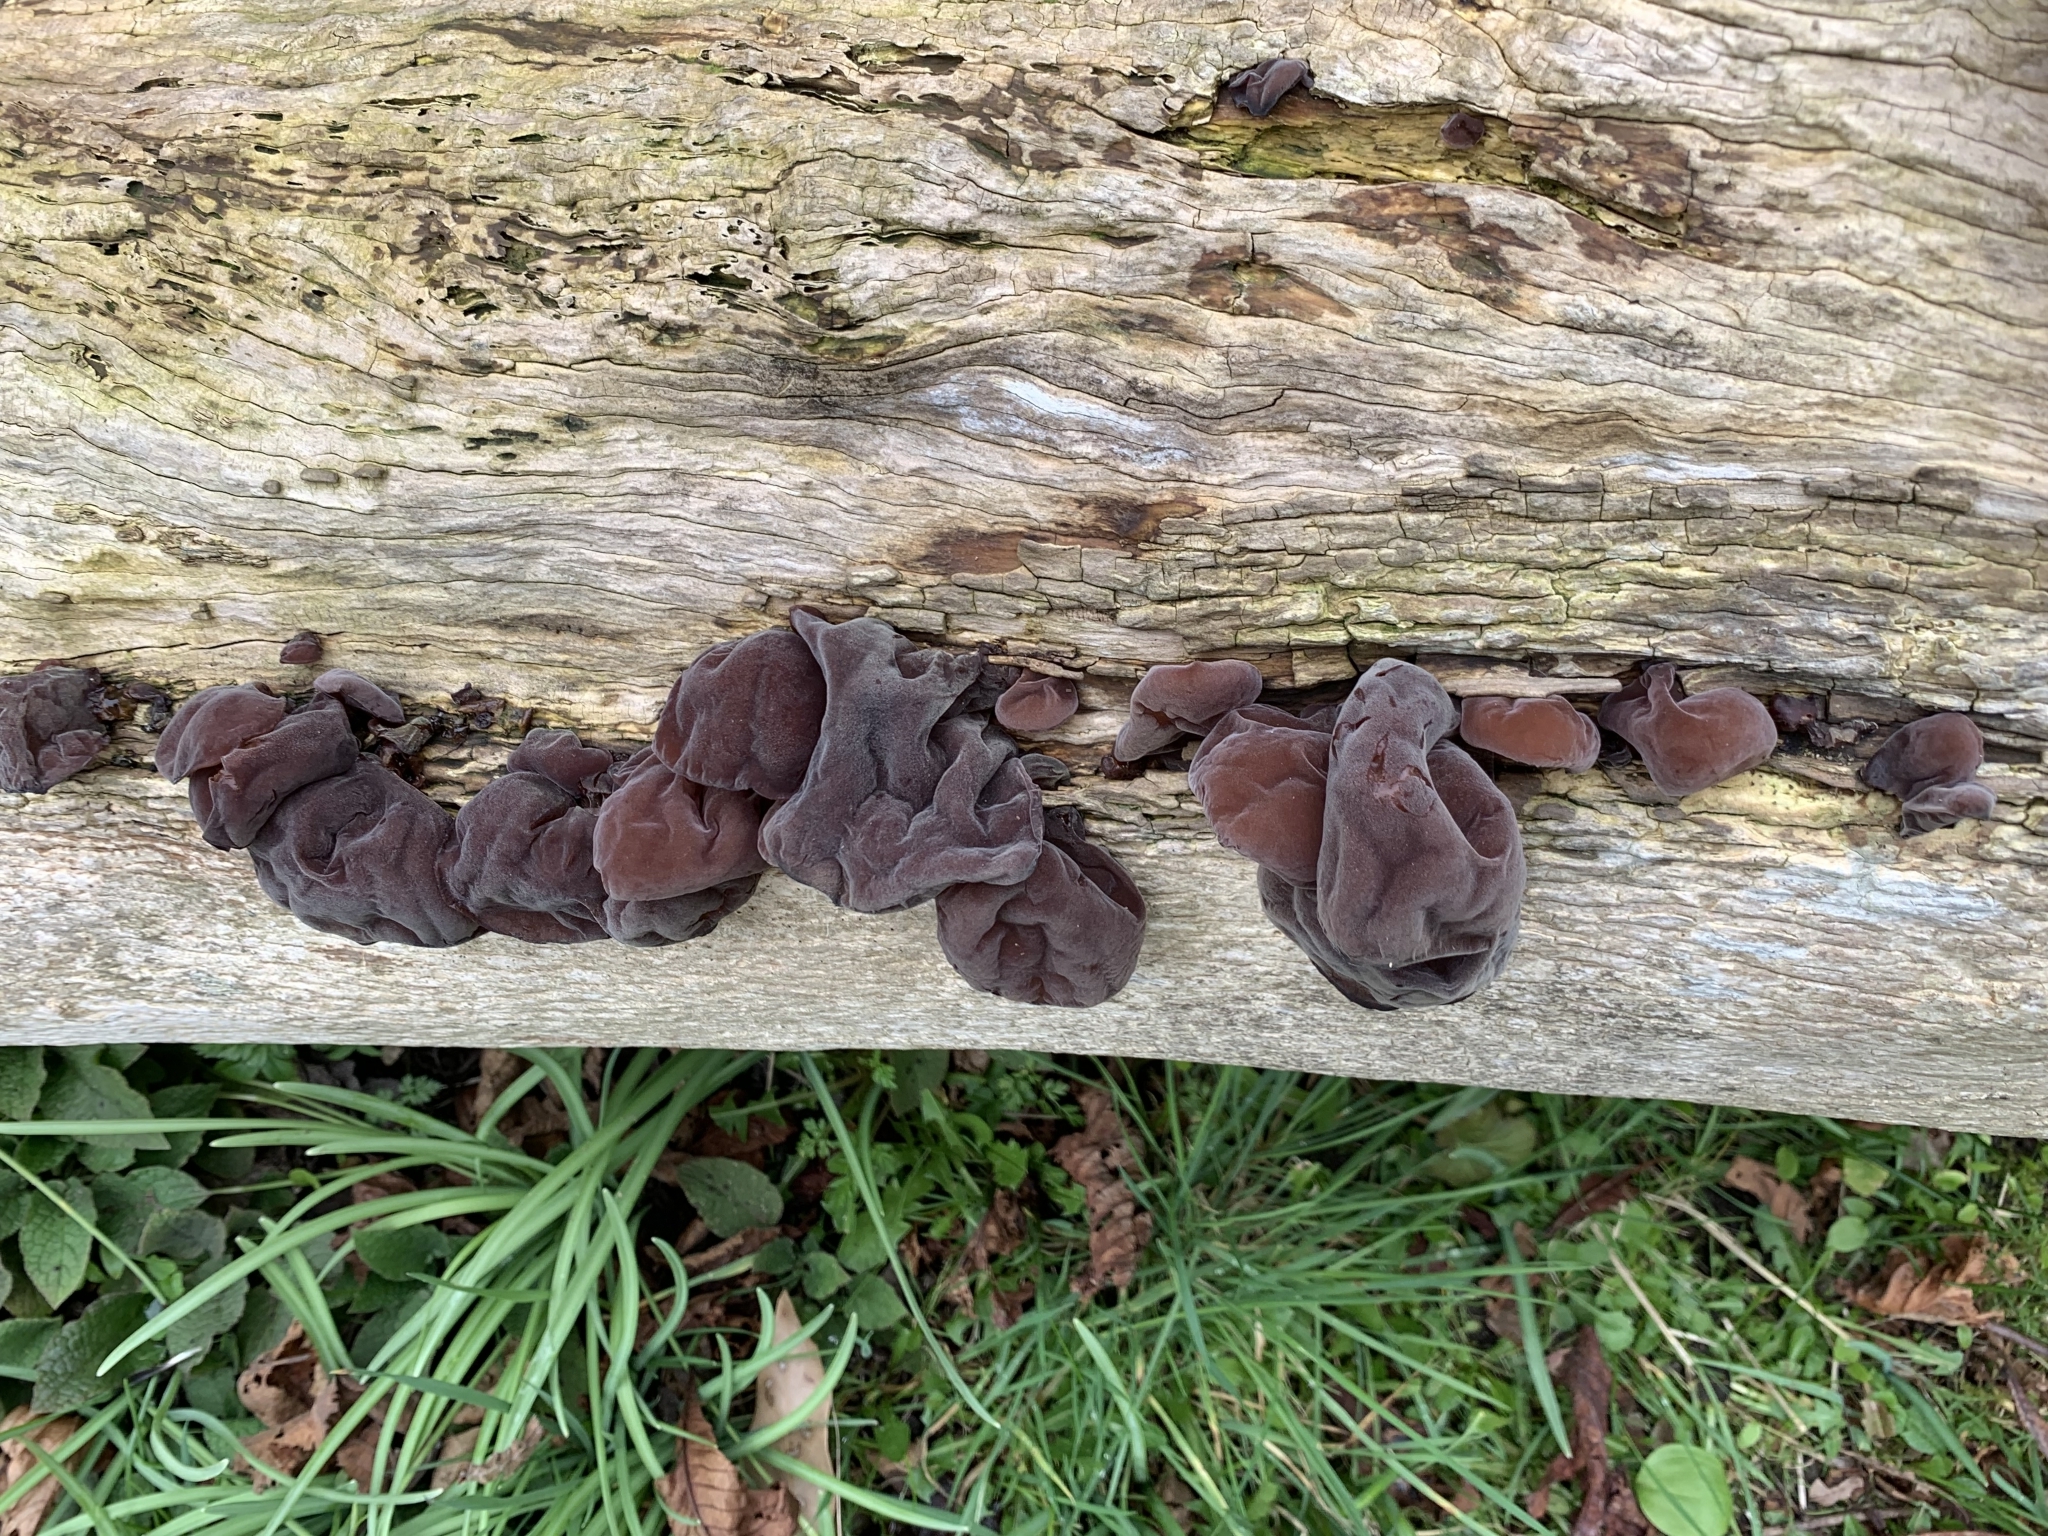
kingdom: Fungi
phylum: Basidiomycota
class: Agaricomycetes
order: Auriculariales
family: Auriculariaceae
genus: Auricularia
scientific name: Auricularia auricula-judae
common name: Jelly ear
